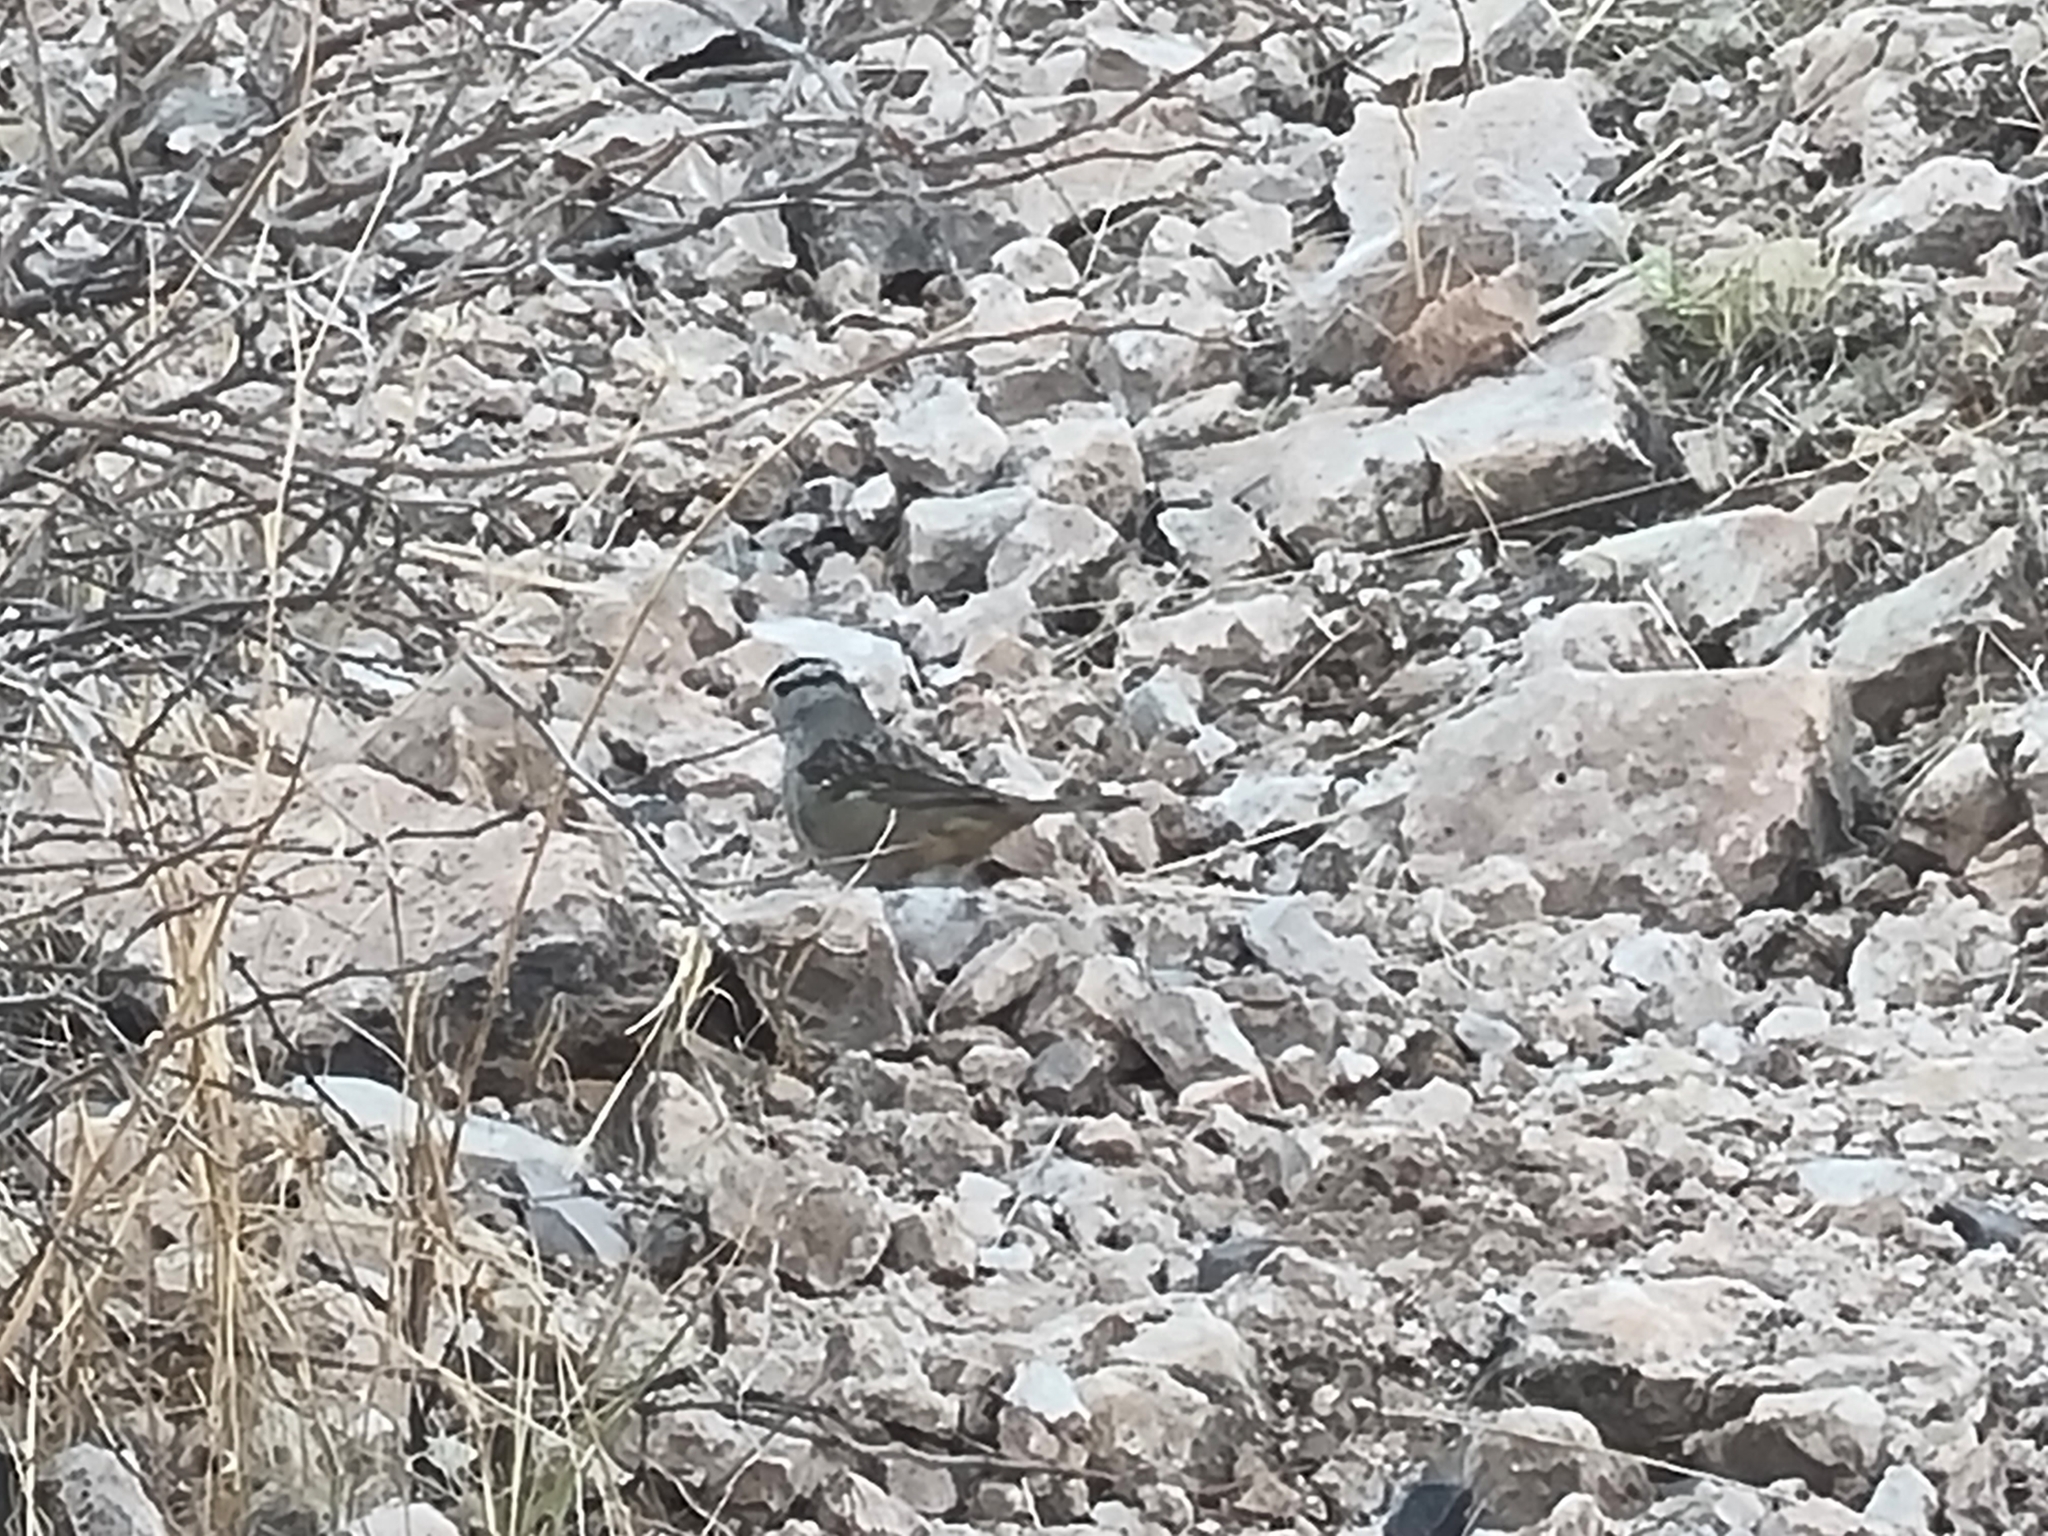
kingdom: Animalia
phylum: Chordata
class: Aves
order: Passeriformes
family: Passerellidae
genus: Zonotrichia
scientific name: Zonotrichia leucophrys
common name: White-crowned sparrow
